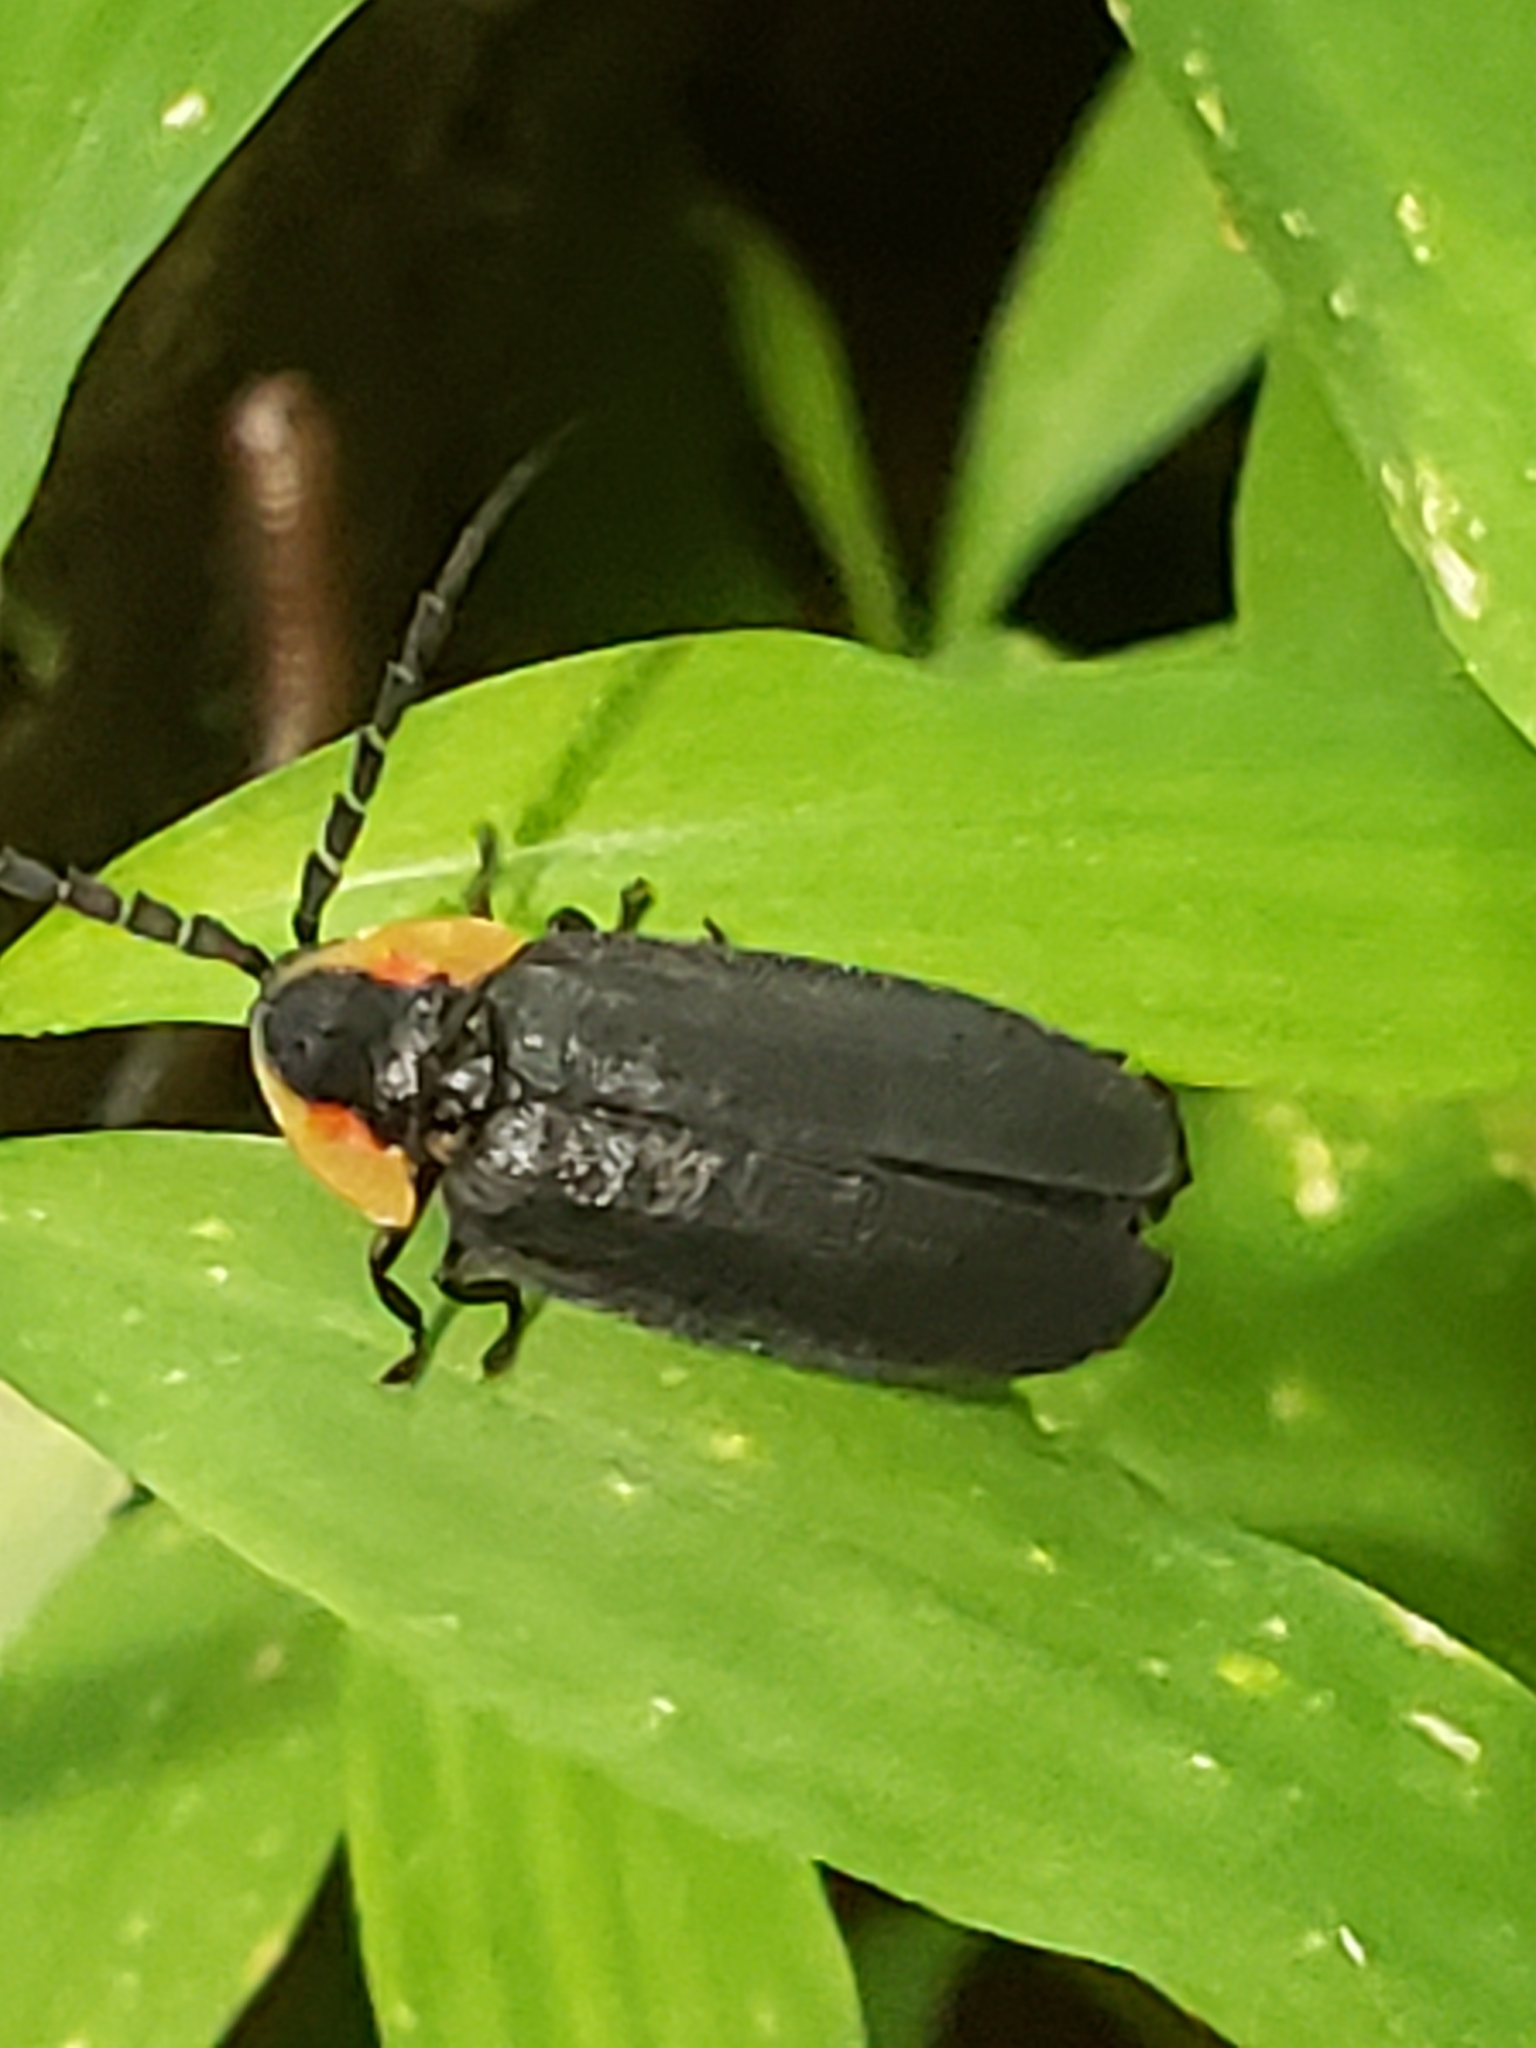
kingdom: Animalia
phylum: Arthropoda
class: Insecta
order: Coleoptera
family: Lampyridae
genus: Lucidota
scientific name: Lucidota atra
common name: Black firefly
